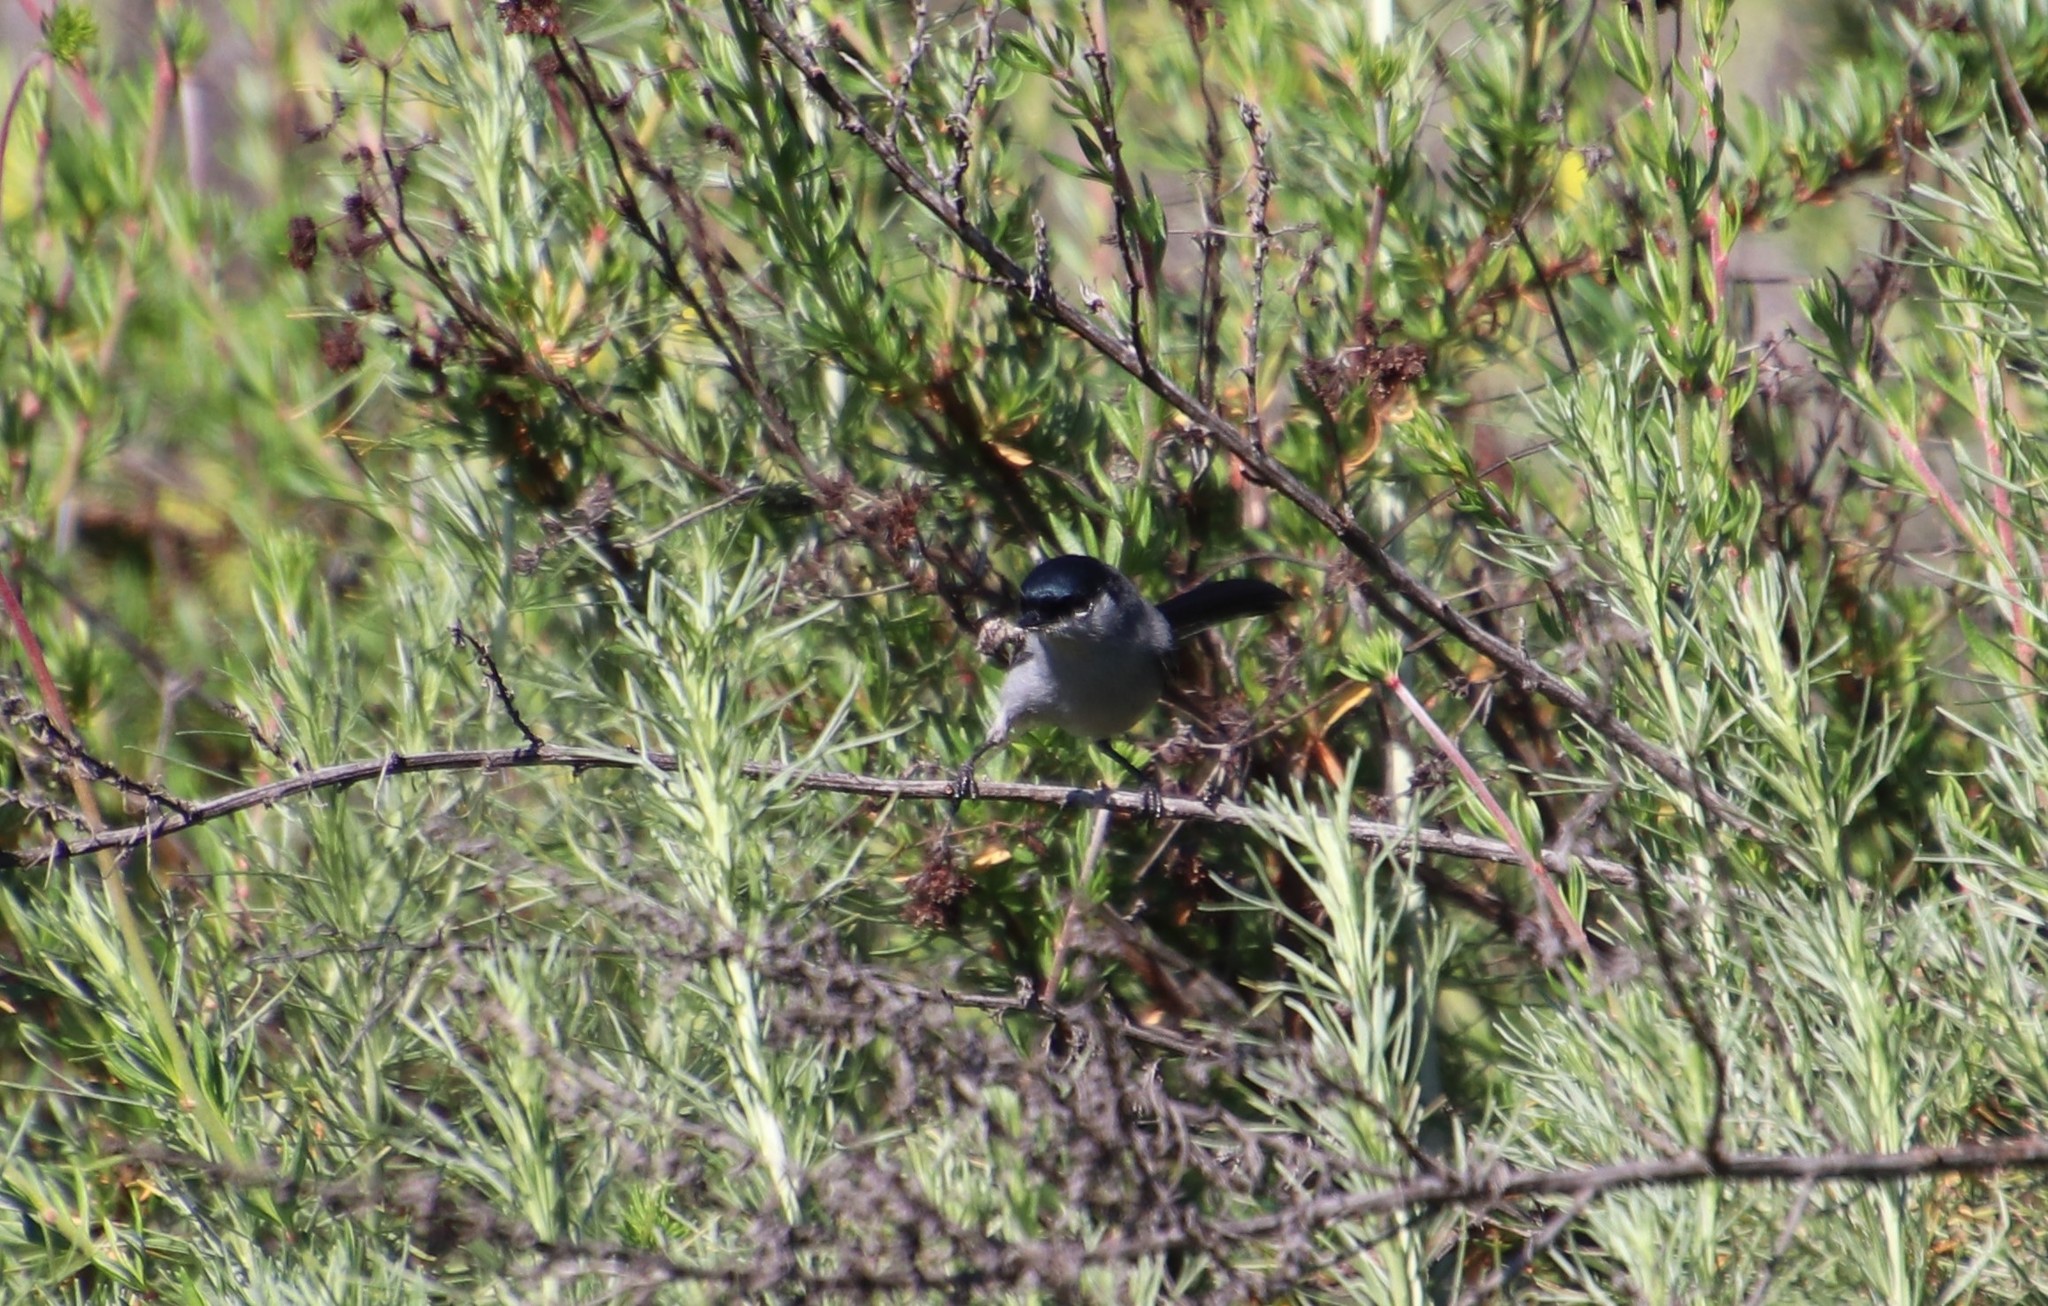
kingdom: Animalia
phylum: Chordata
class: Aves
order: Passeriformes
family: Polioptilidae
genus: Polioptila
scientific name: Polioptila californica
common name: California gnatcatcher
